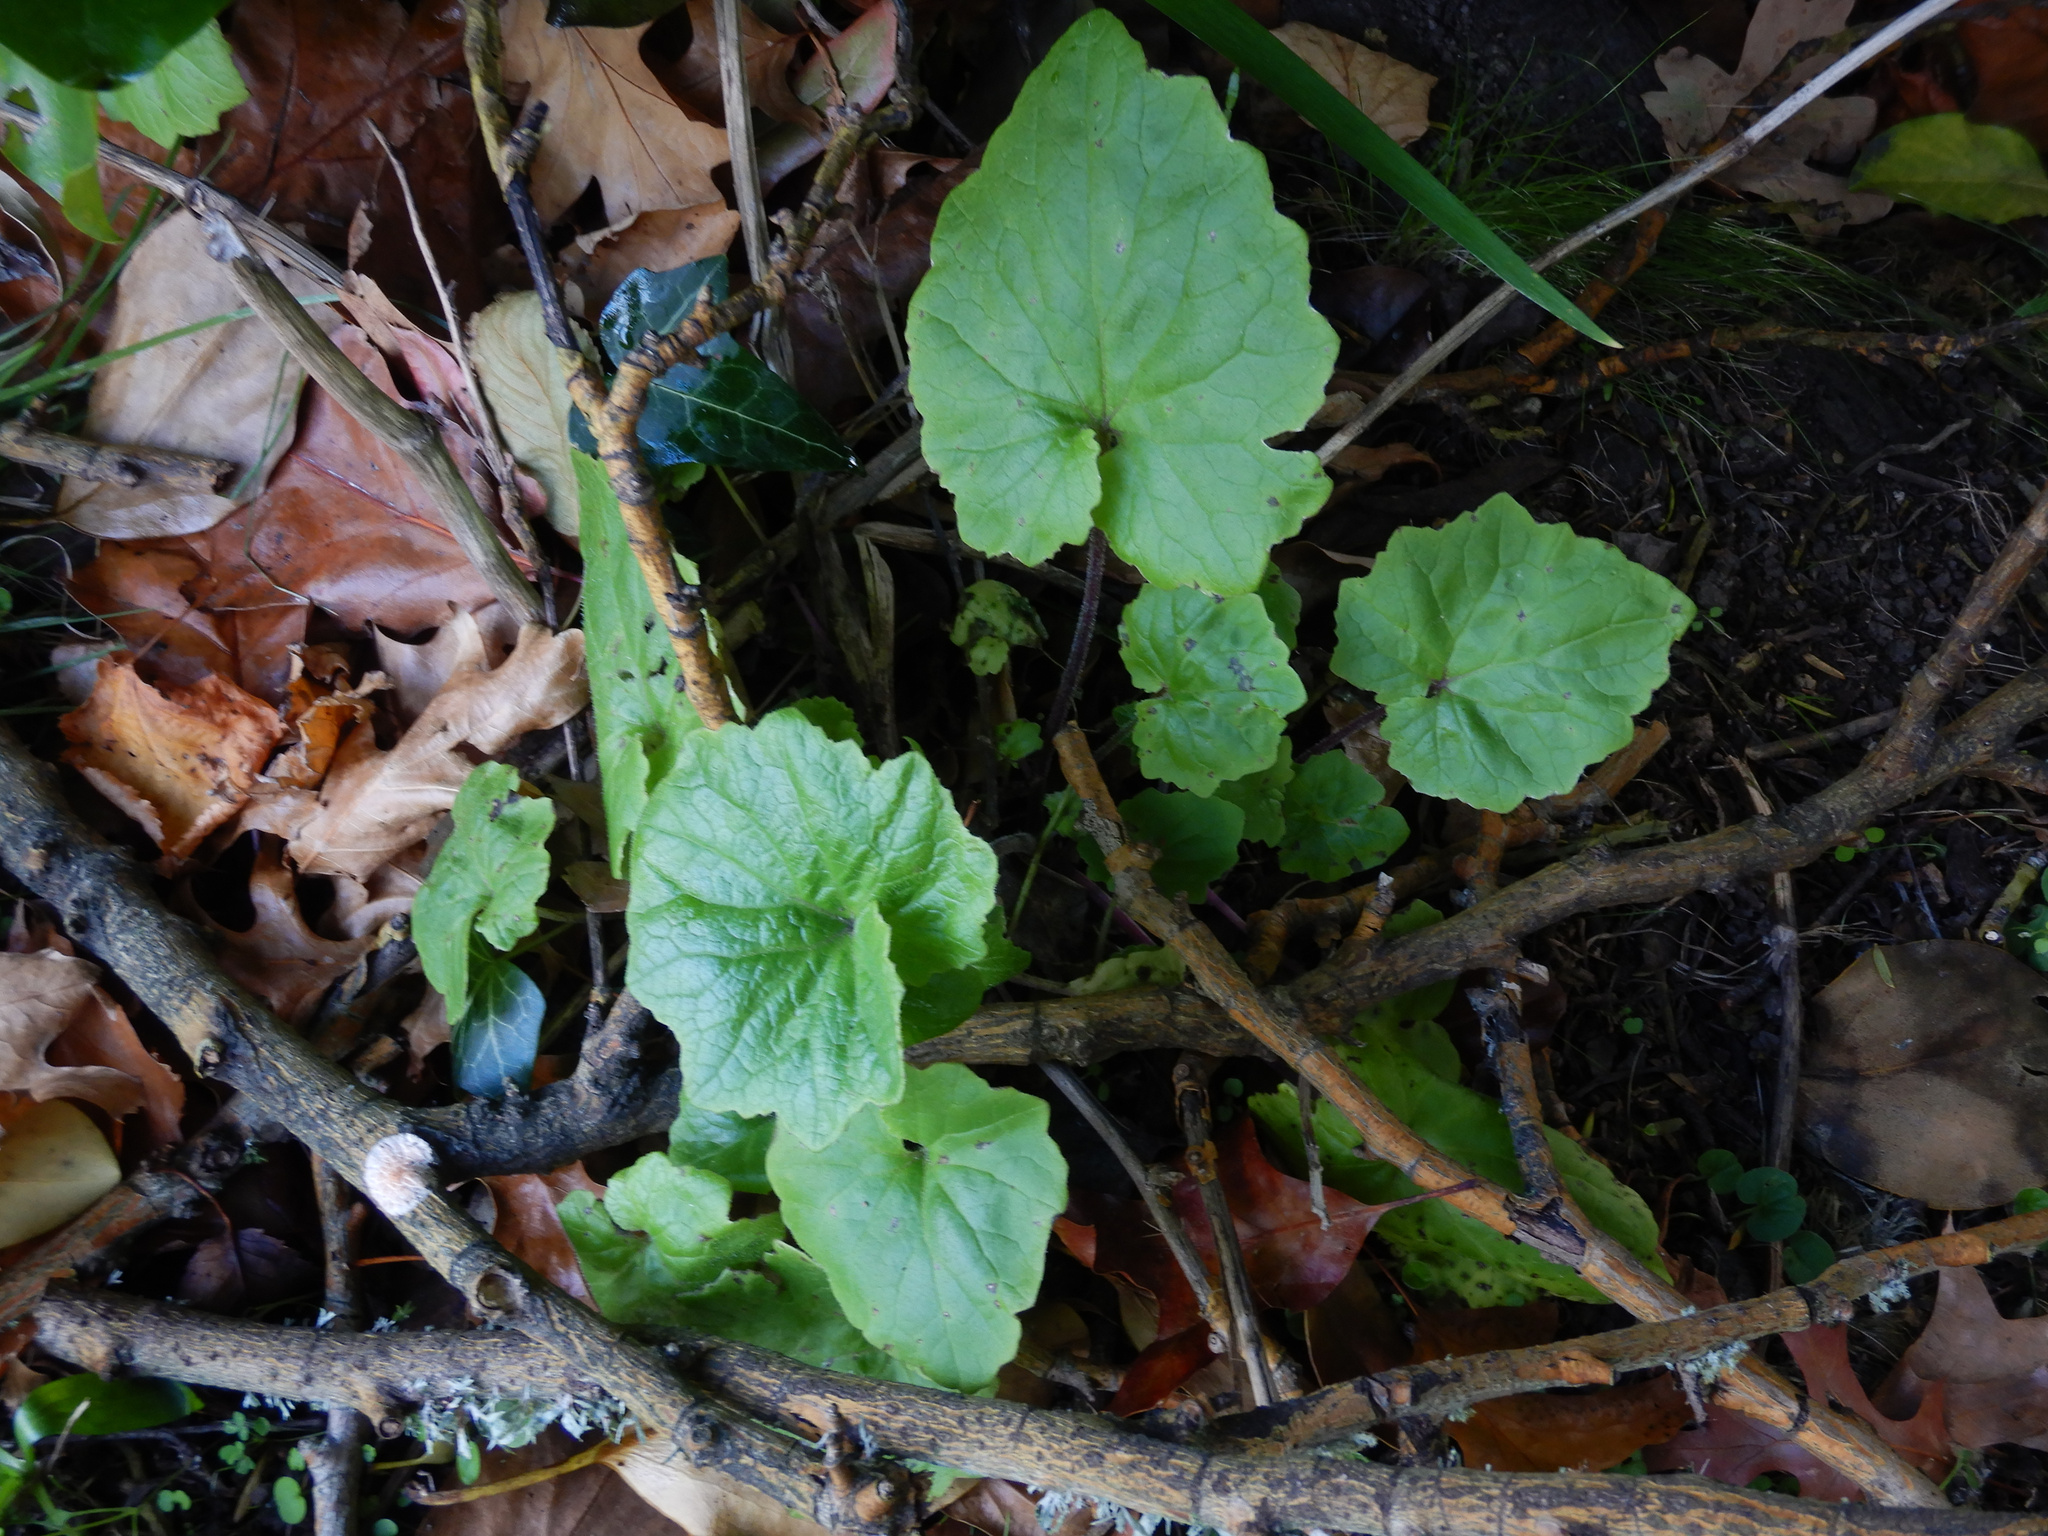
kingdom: Plantae
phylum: Tracheophyta
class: Magnoliopsida
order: Asterales
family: Asteraceae
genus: Pericallis
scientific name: Pericallis hybrida
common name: Cineraria
